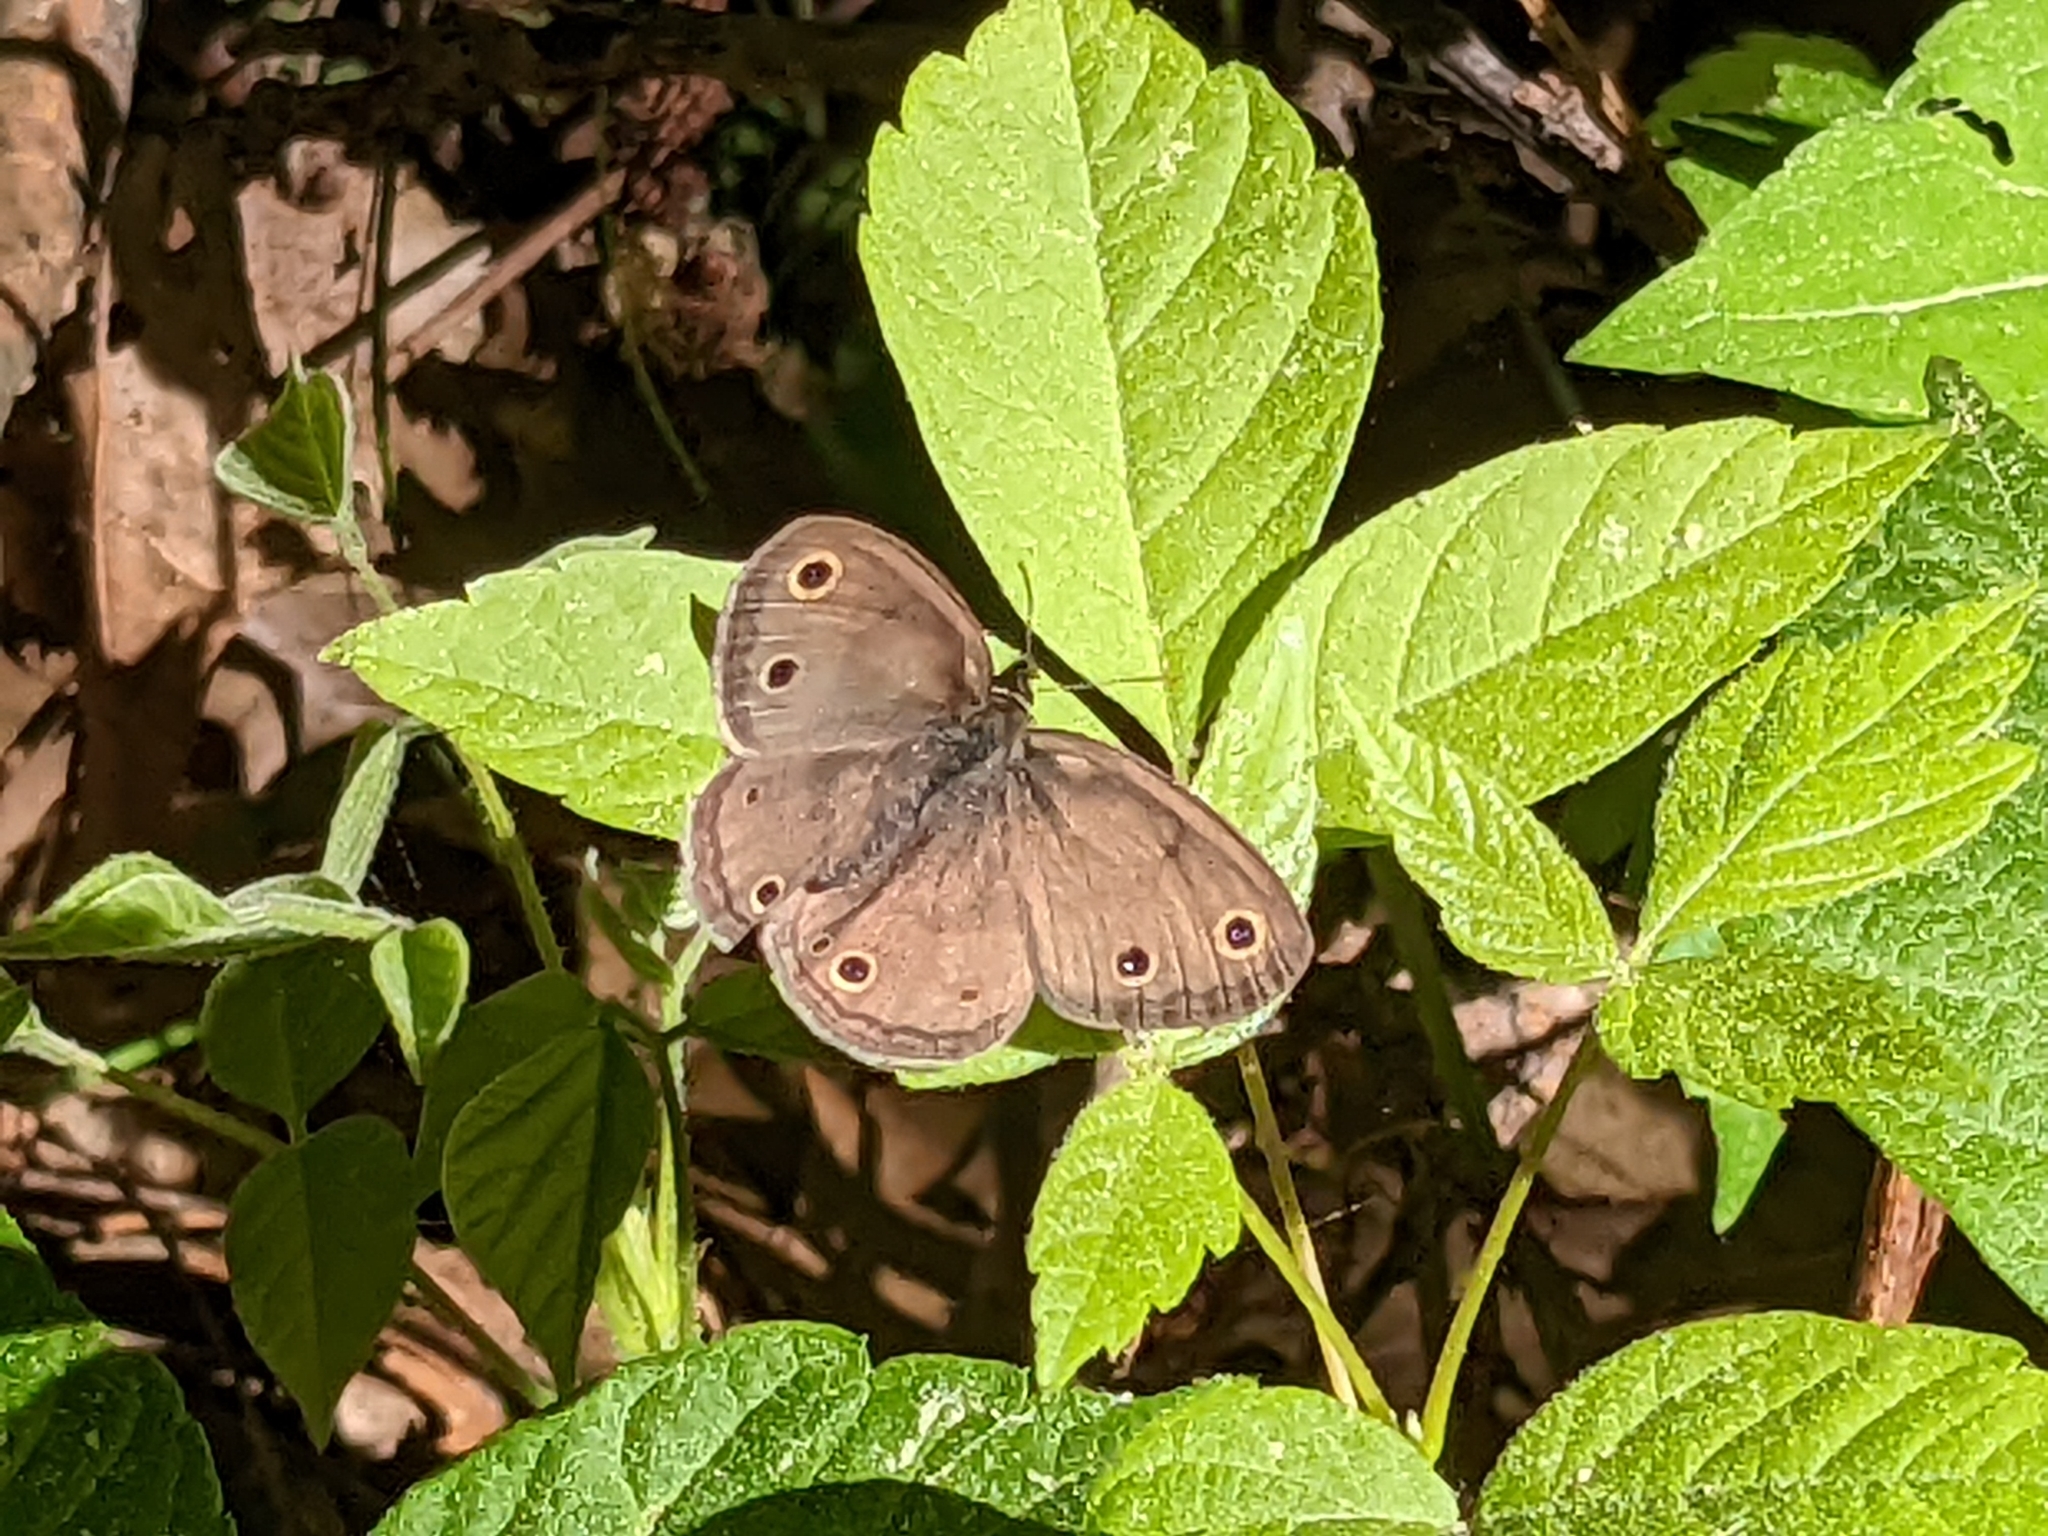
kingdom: Animalia
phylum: Arthropoda
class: Insecta
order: Lepidoptera
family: Nymphalidae
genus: Euptychia
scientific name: Euptychia cymela
